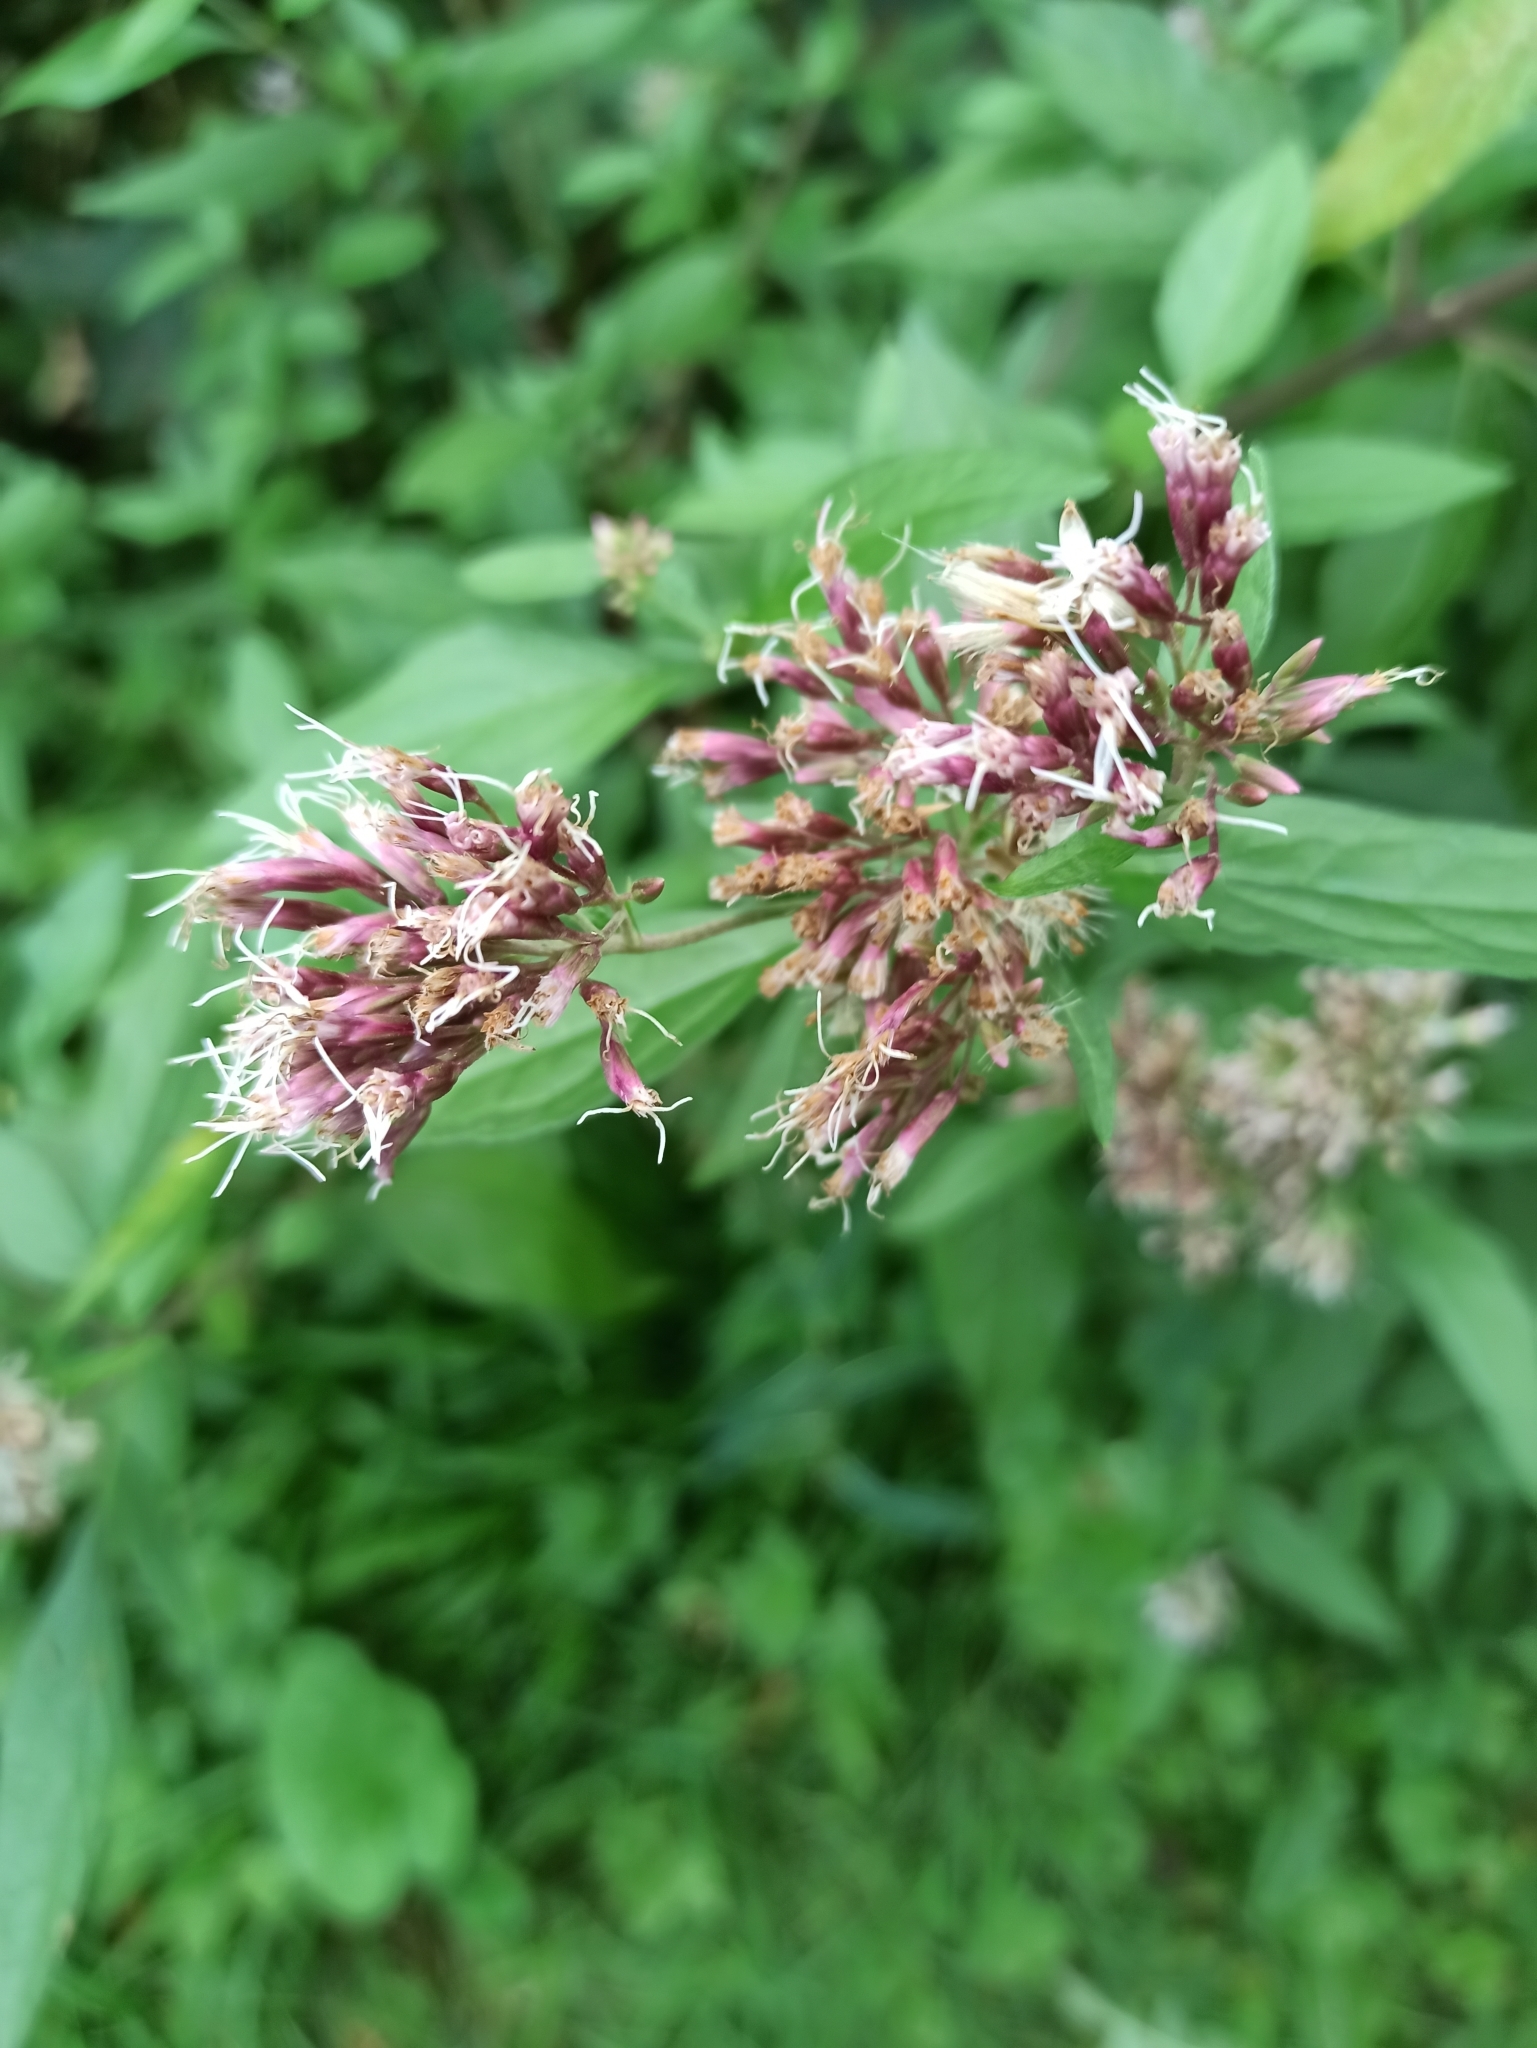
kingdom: Plantae
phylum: Tracheophyta
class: Magnoliopsida
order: Asterales
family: Asteraceae
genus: Eupatorium
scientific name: Eupatorium cannabinum
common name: Hemp-agrimony
